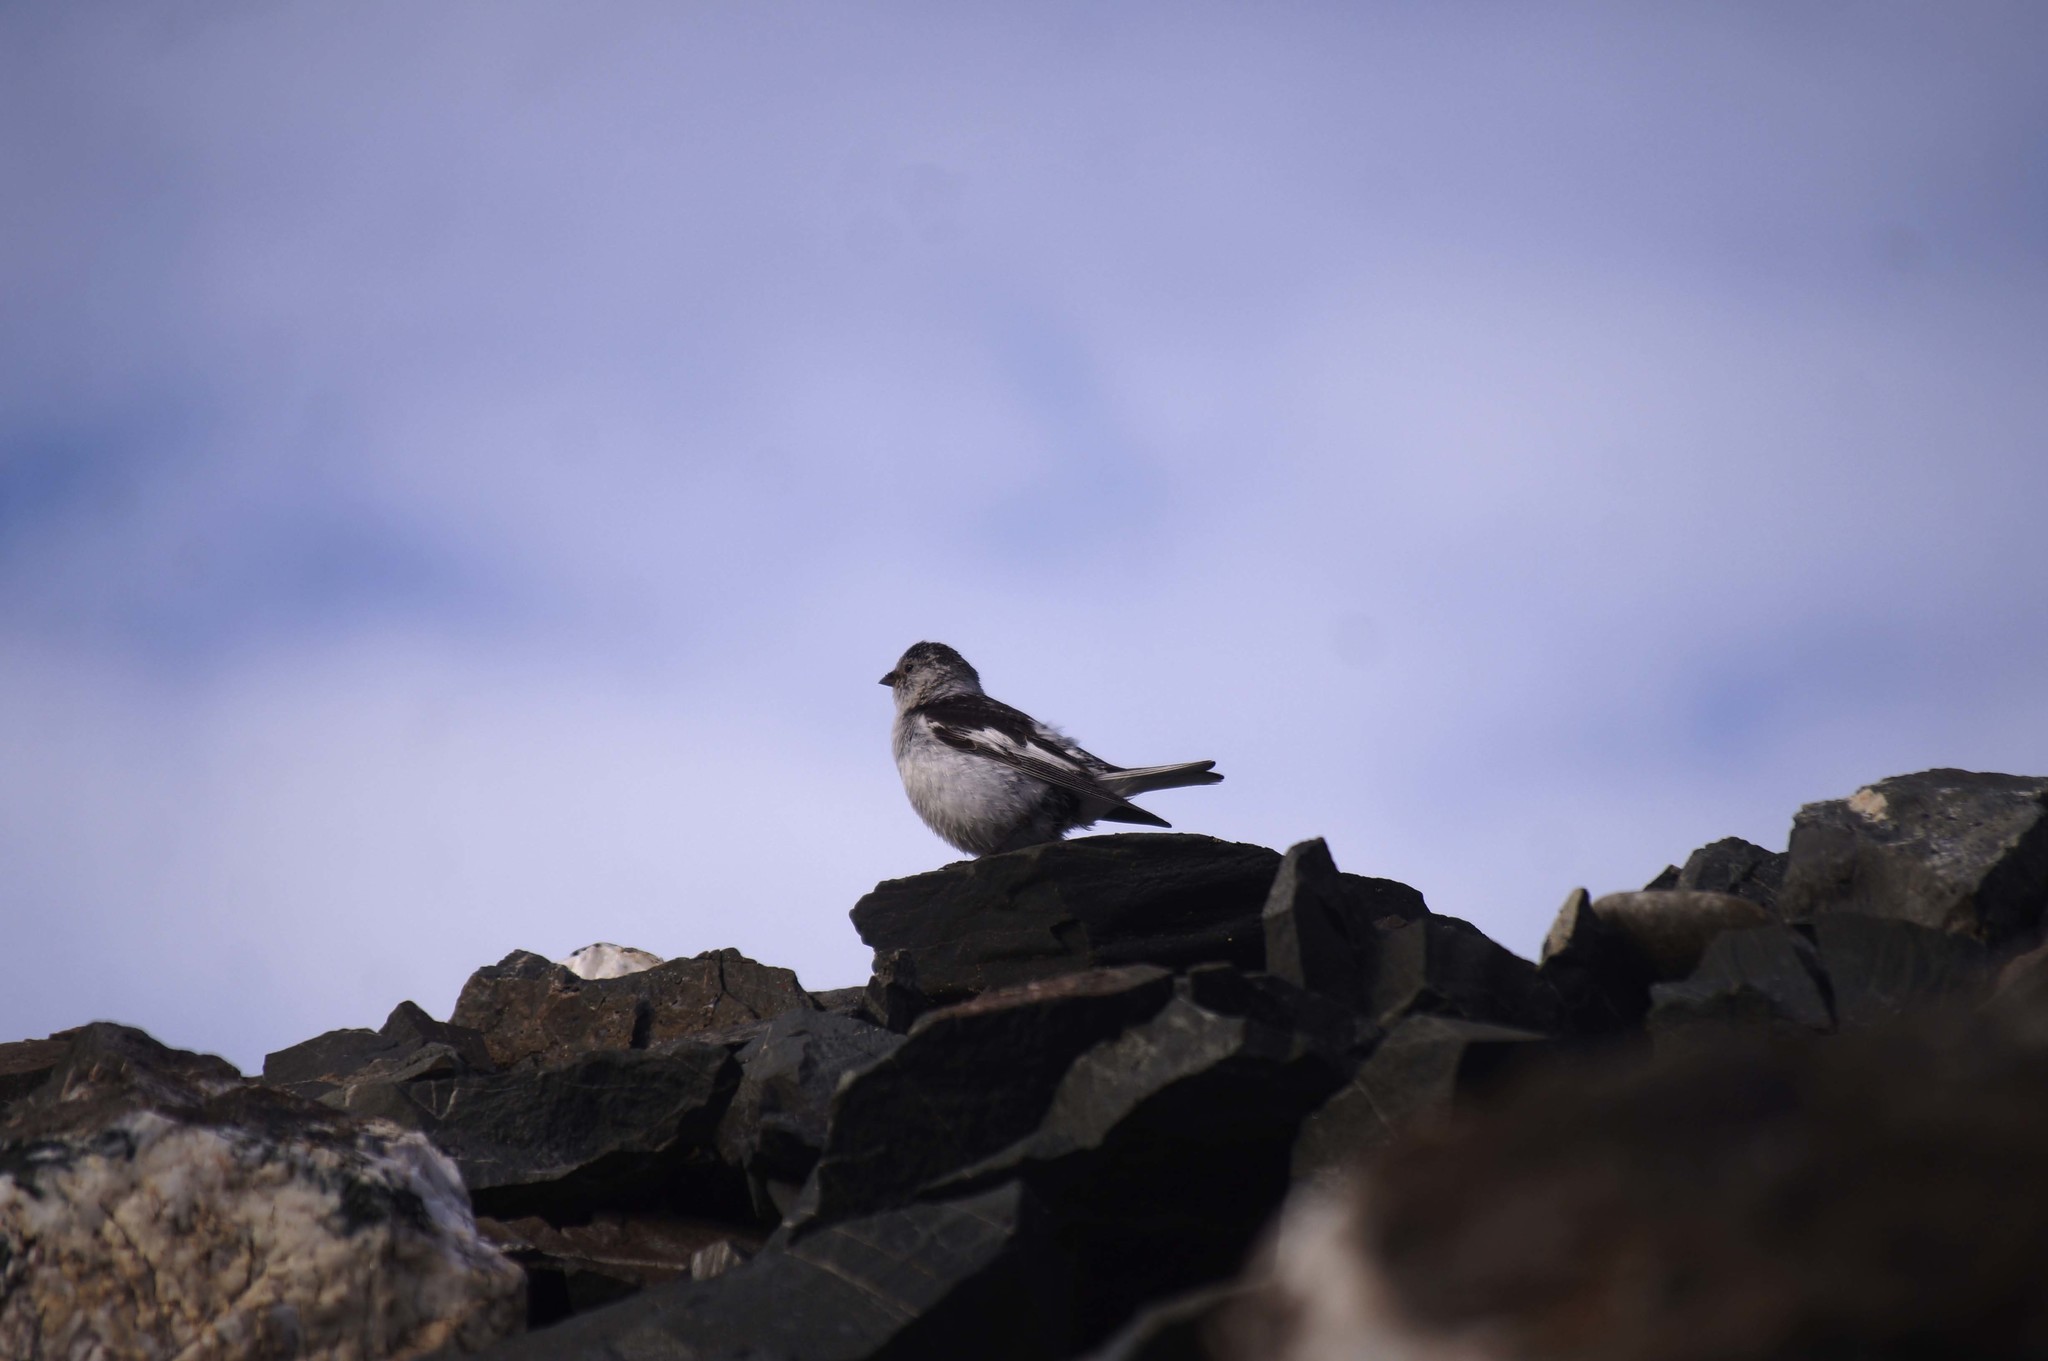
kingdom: Animalia
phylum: Chordata
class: Aves
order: Passeriformes
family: Calcariidae
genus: Plectrophenax
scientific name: Plectrophenax nivalis
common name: Snow bunting
